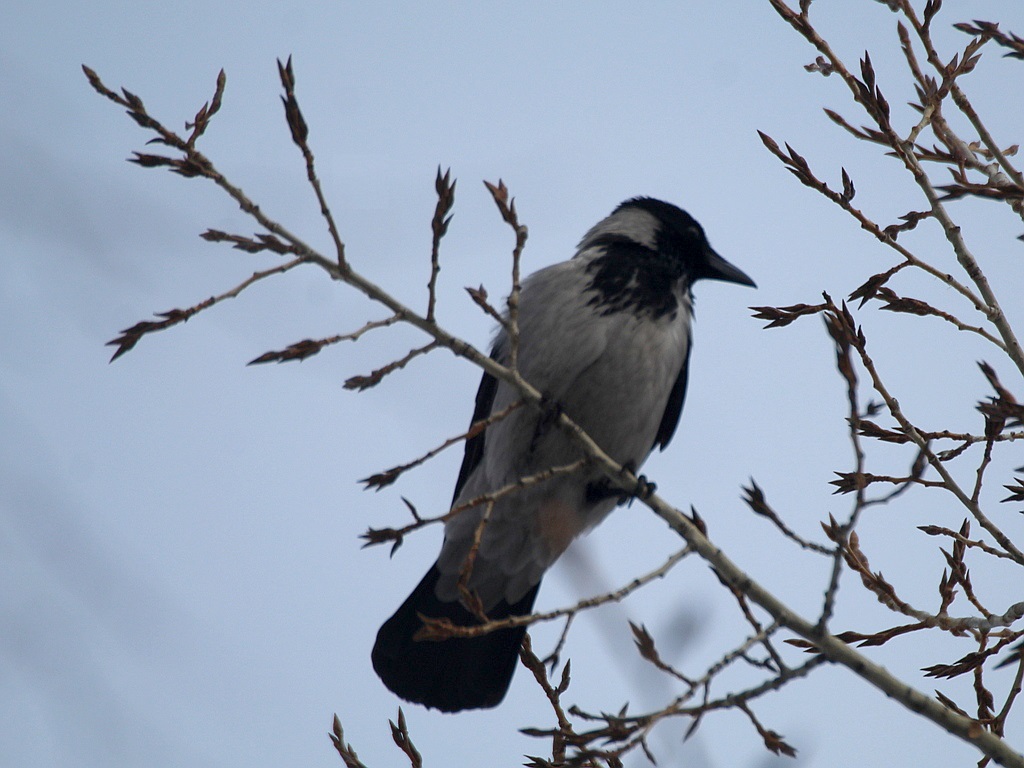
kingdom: Animalia
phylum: Chordata
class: Aves
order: Passeriformes
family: Corvidae
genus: Corvus
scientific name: Corvus cornix
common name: Hooded crow
